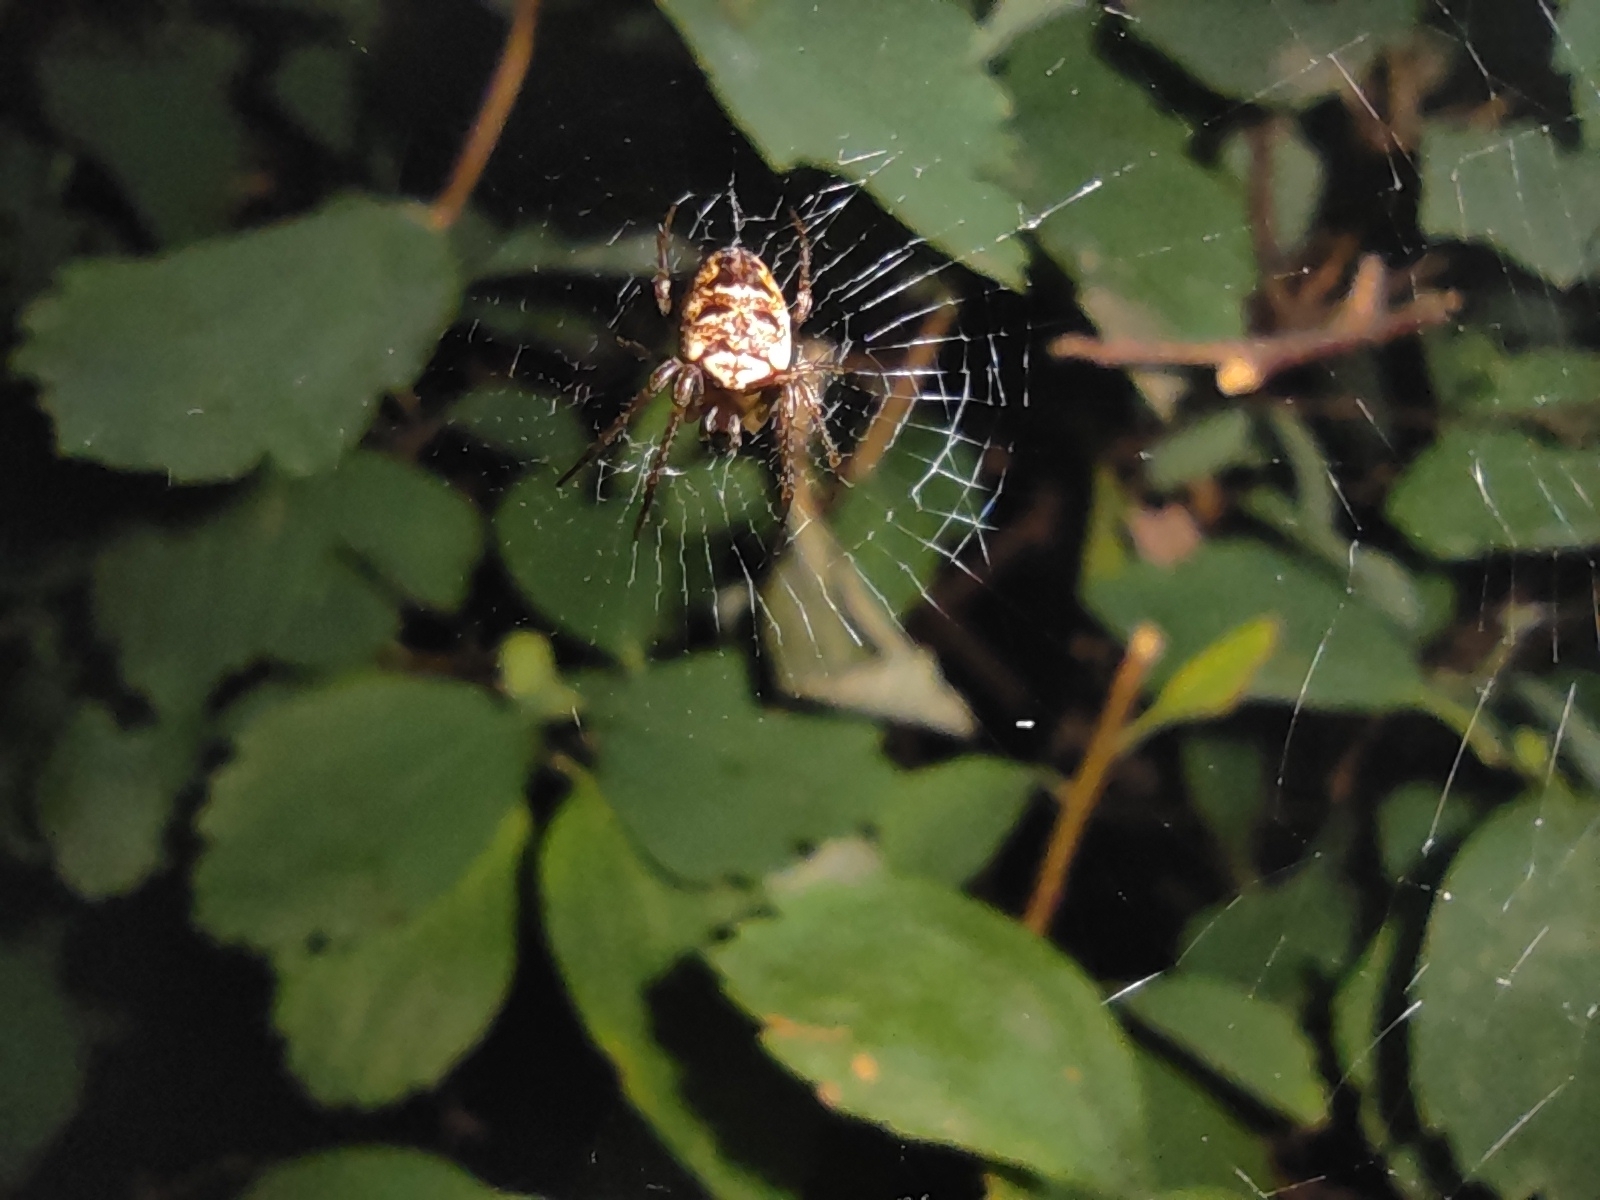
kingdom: Animalia
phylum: Arthropoda
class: Arachnida
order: Araneae
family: Araneidae
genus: Zilla
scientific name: Zilla diodia
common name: Zilla diodia
